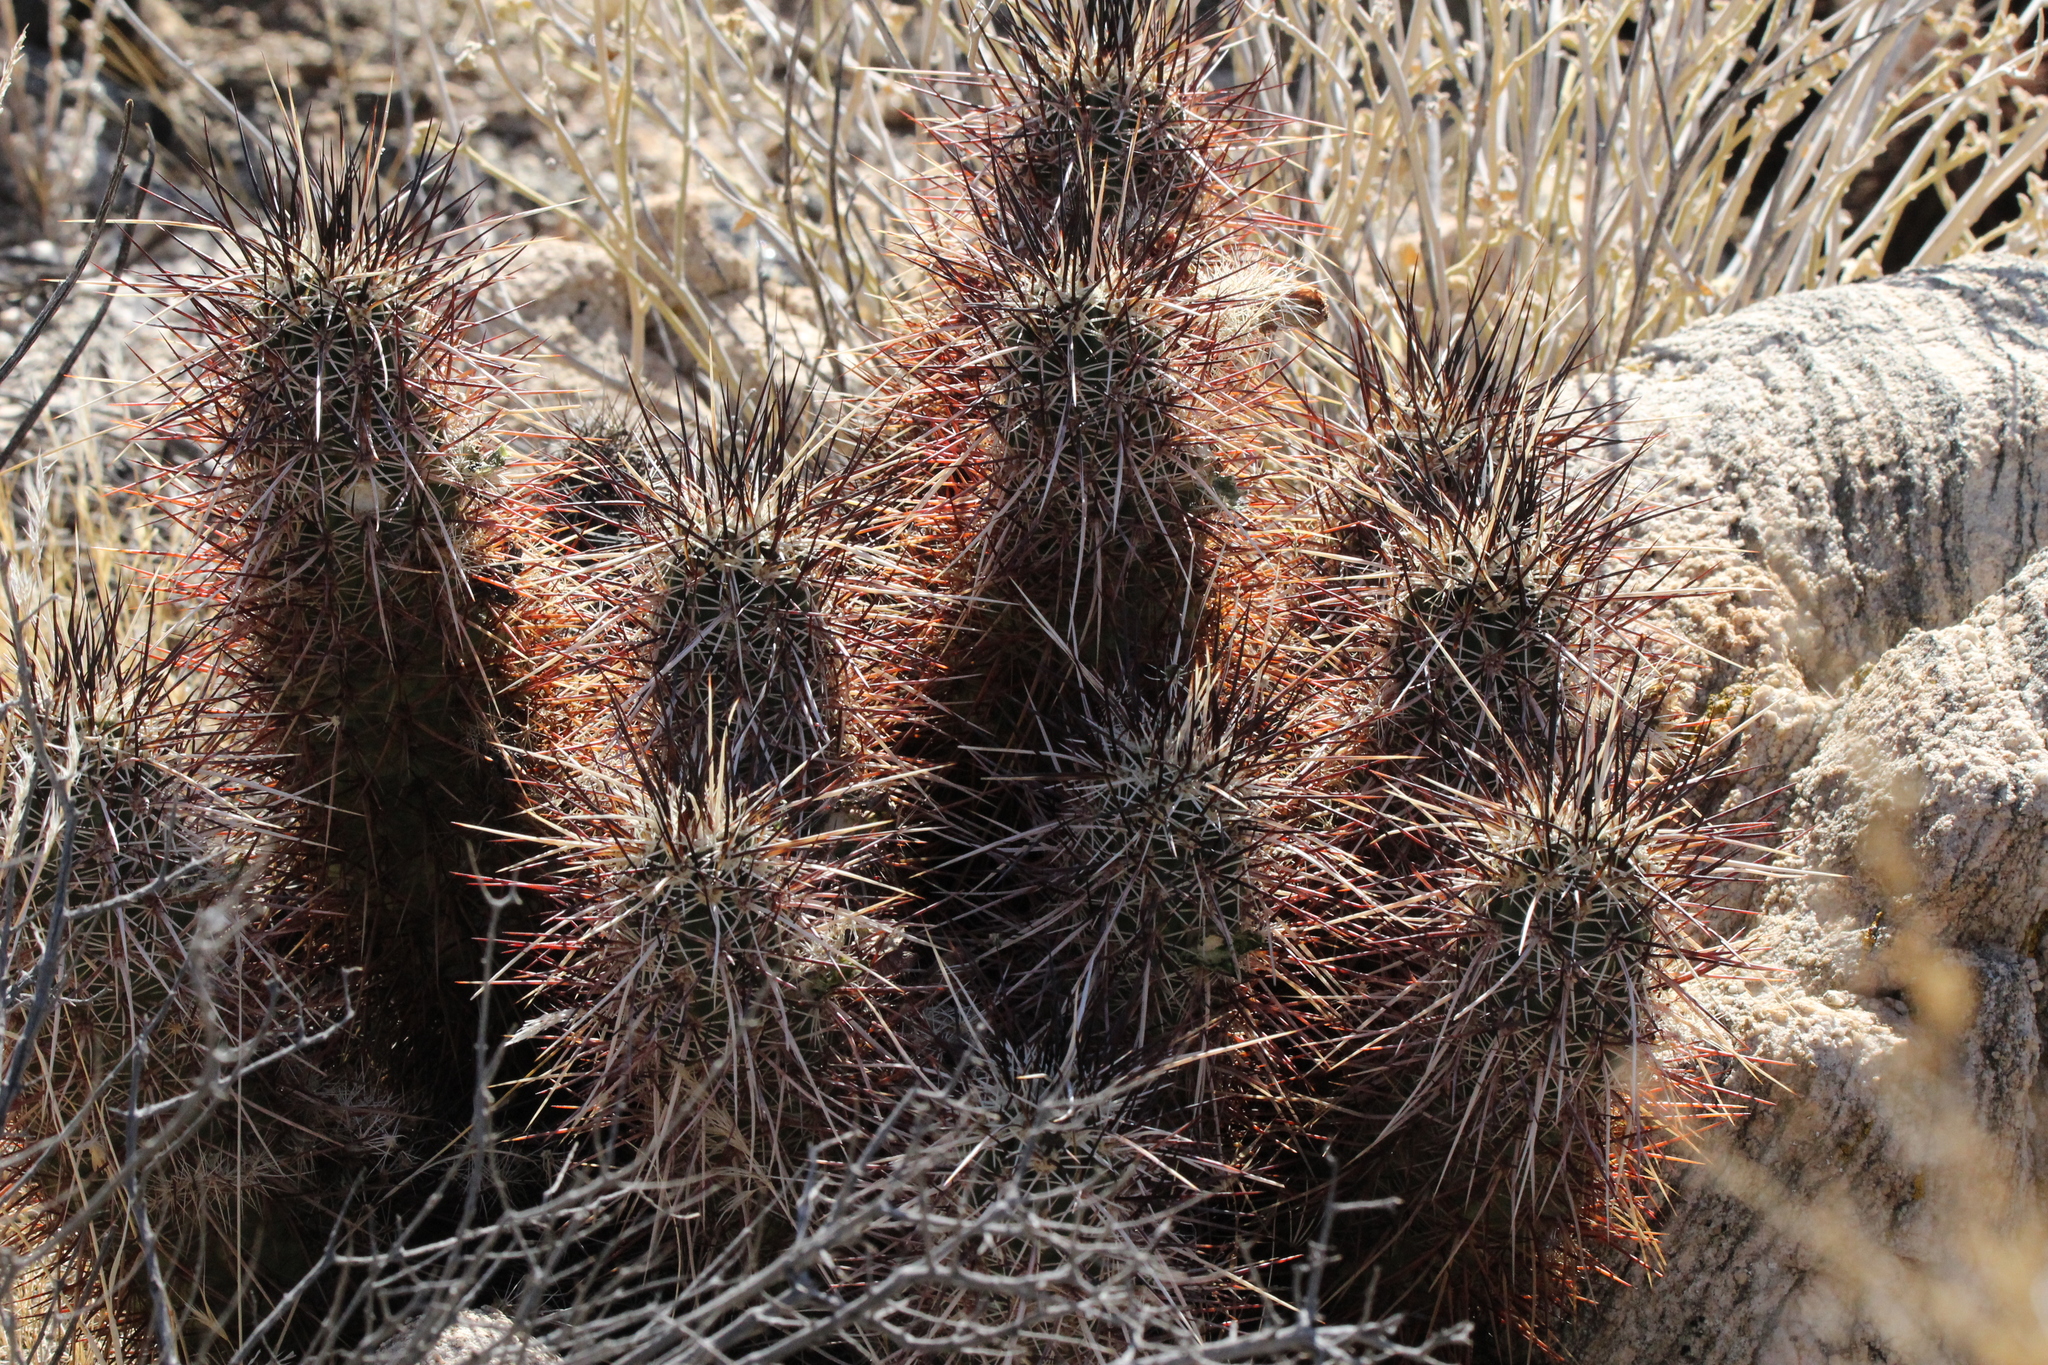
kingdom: Plantae
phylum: Tracheophyta
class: Magnoliopsida
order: Caryophyllales
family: Cactaceae
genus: Echinocereus
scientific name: Echinocereus engelmannii
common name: Engelmann's hedgehog cactus
